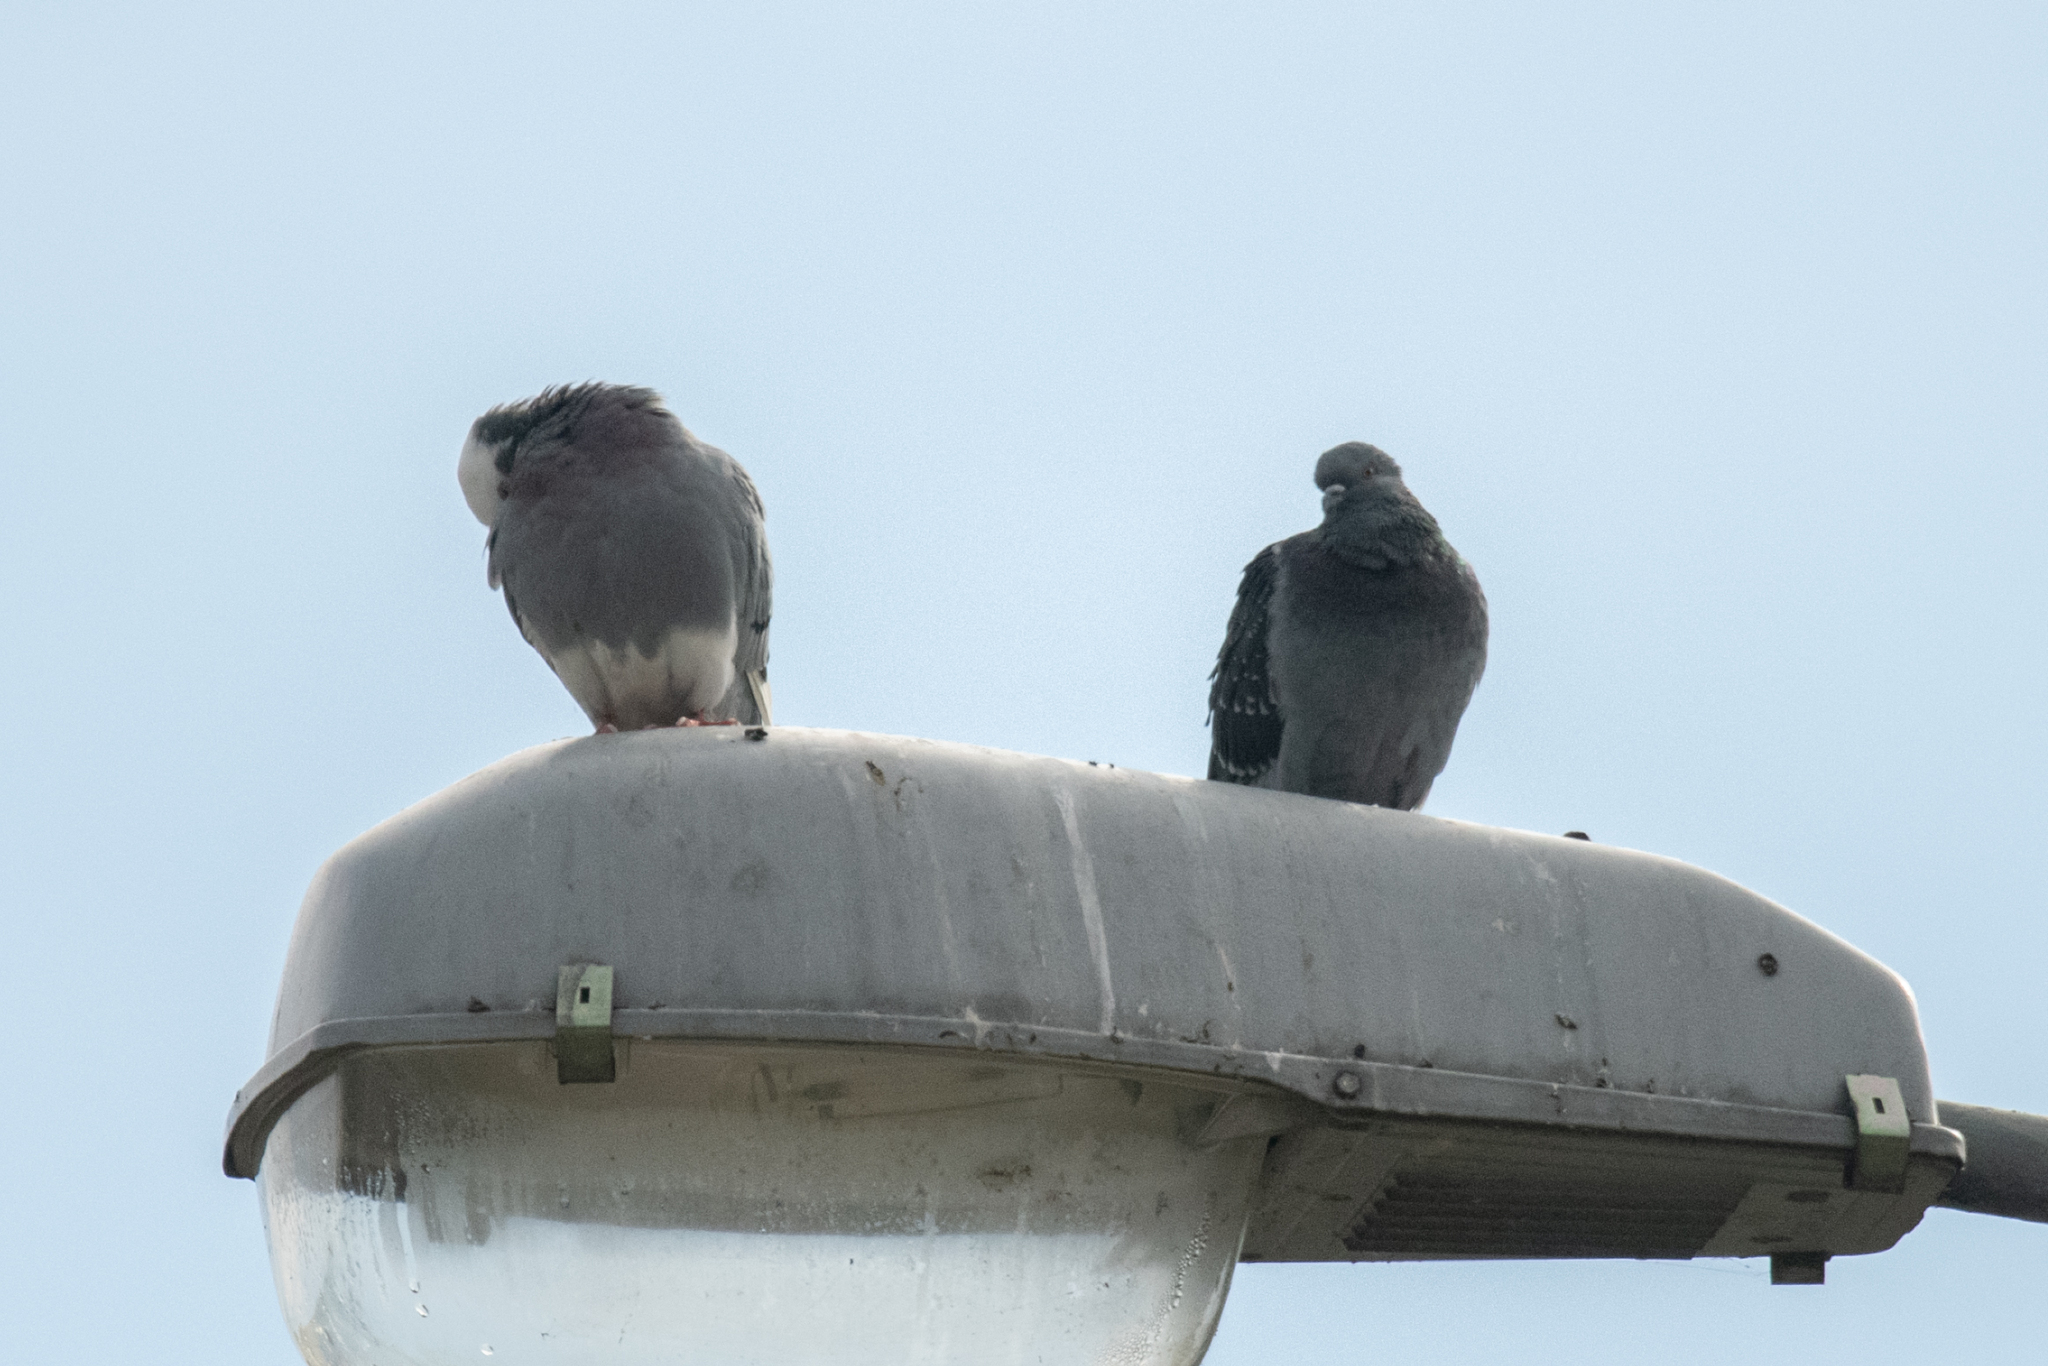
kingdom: Animalia
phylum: Chordata
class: Aves
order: Columbiformes
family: Columbidae
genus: Columba
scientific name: Columba livia
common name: Rock pigeon
